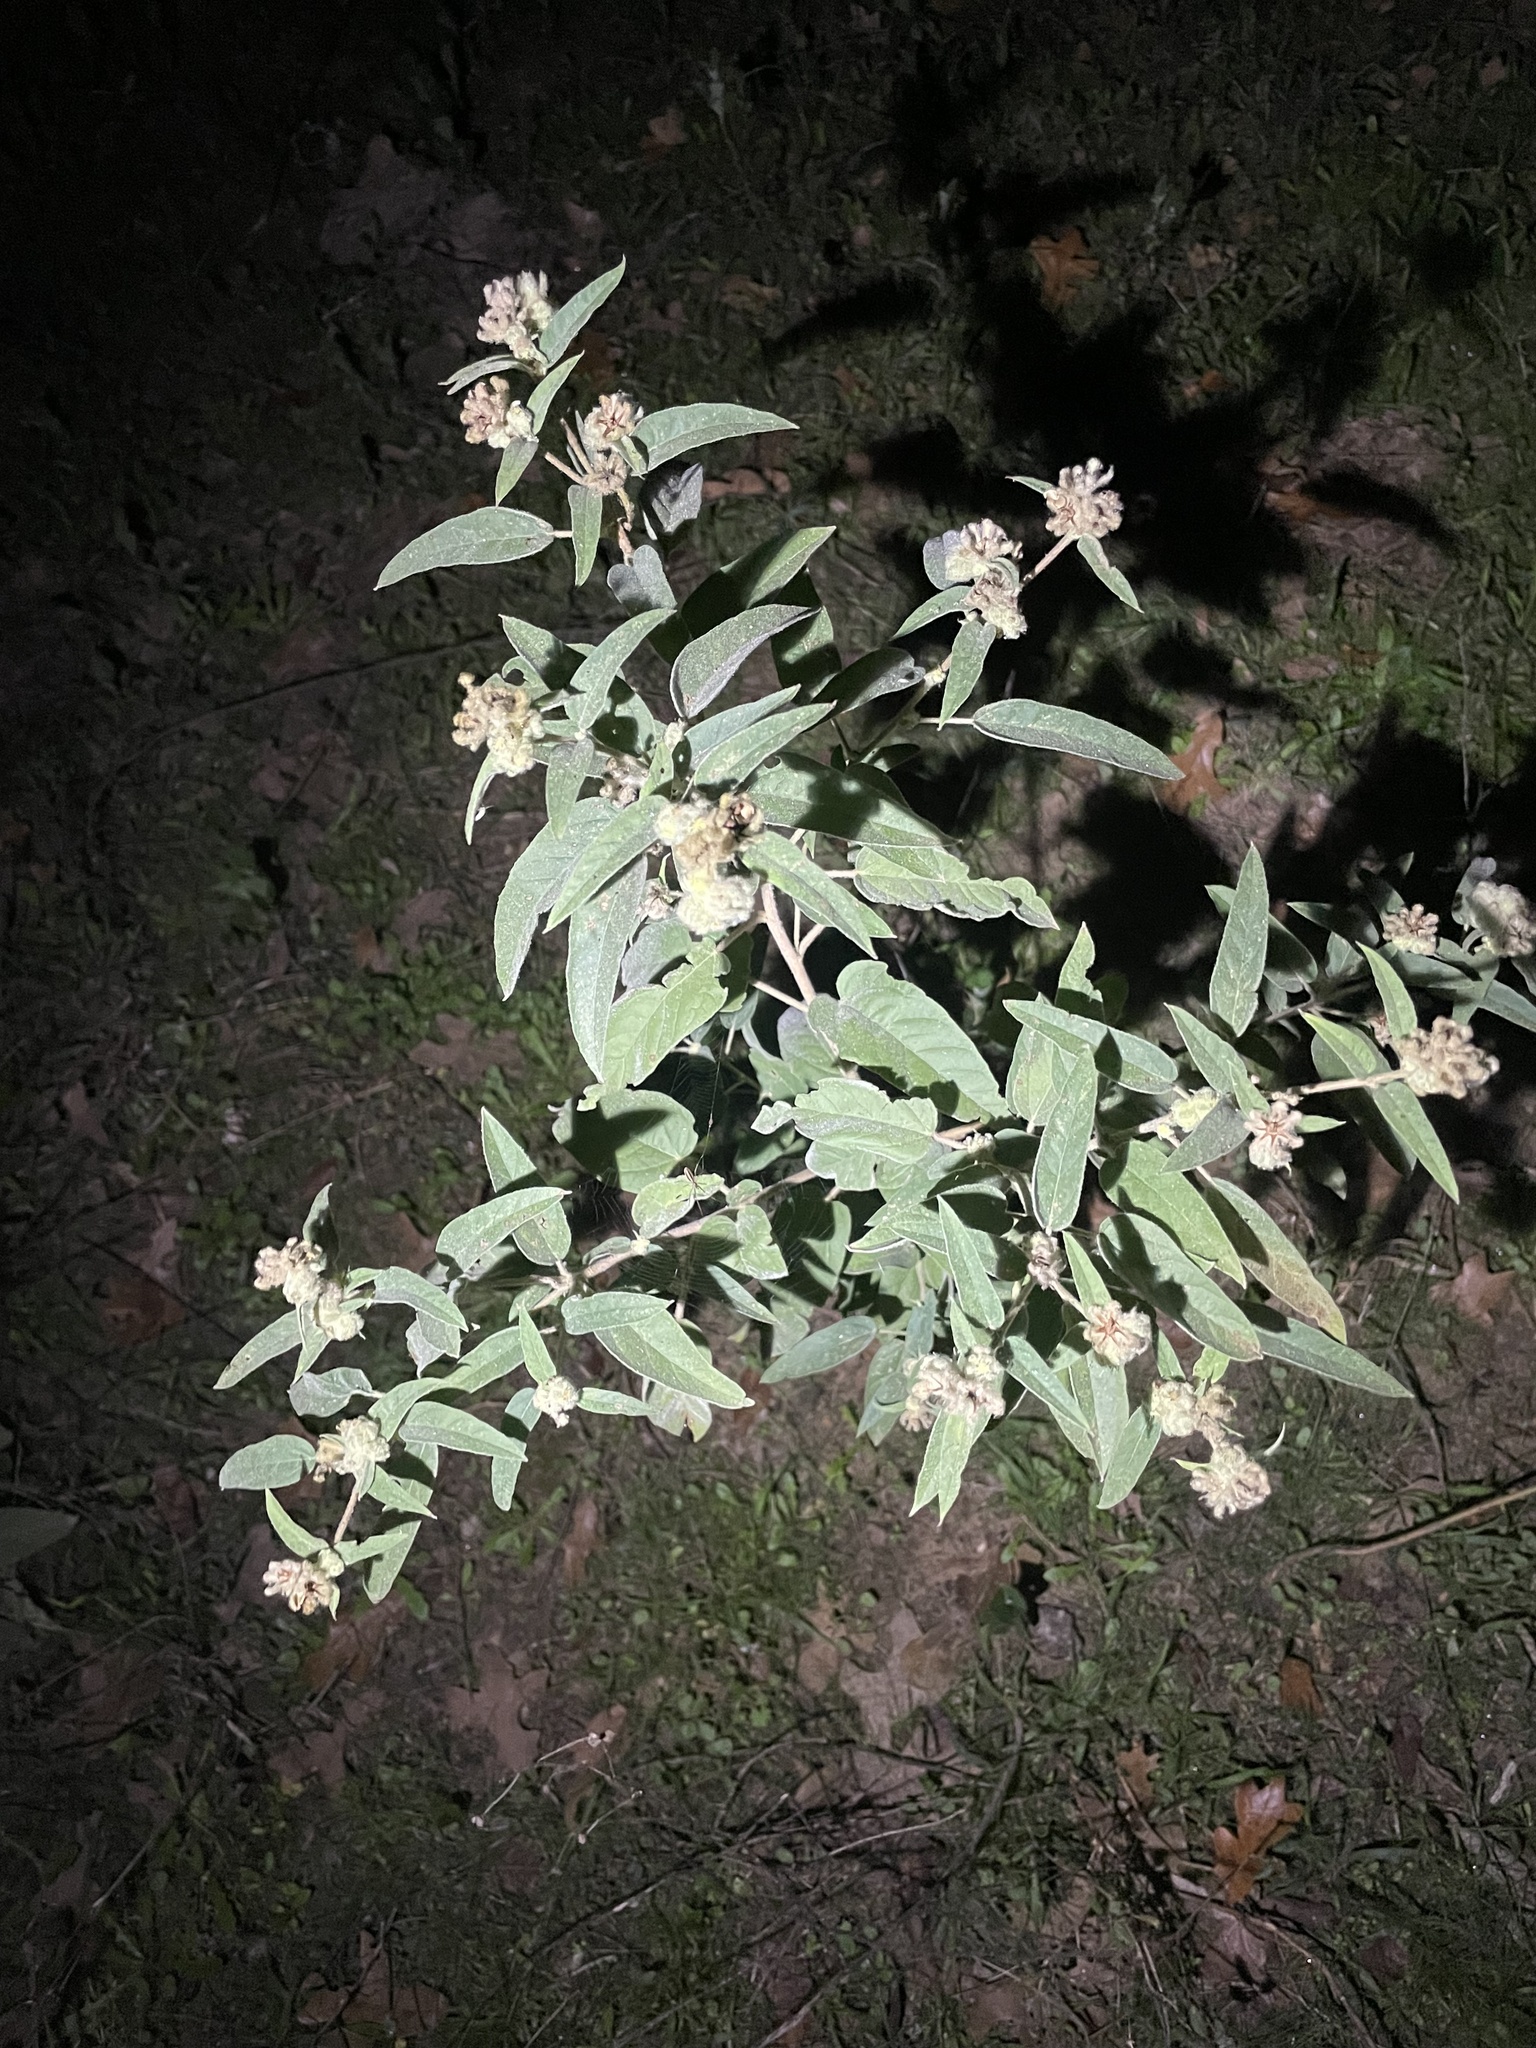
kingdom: Plantae
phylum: Tracheophyta
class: Magnoliopsida
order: Malpighiales
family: Euphorbiaceae
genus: Croton
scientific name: Croton lindheimeri
